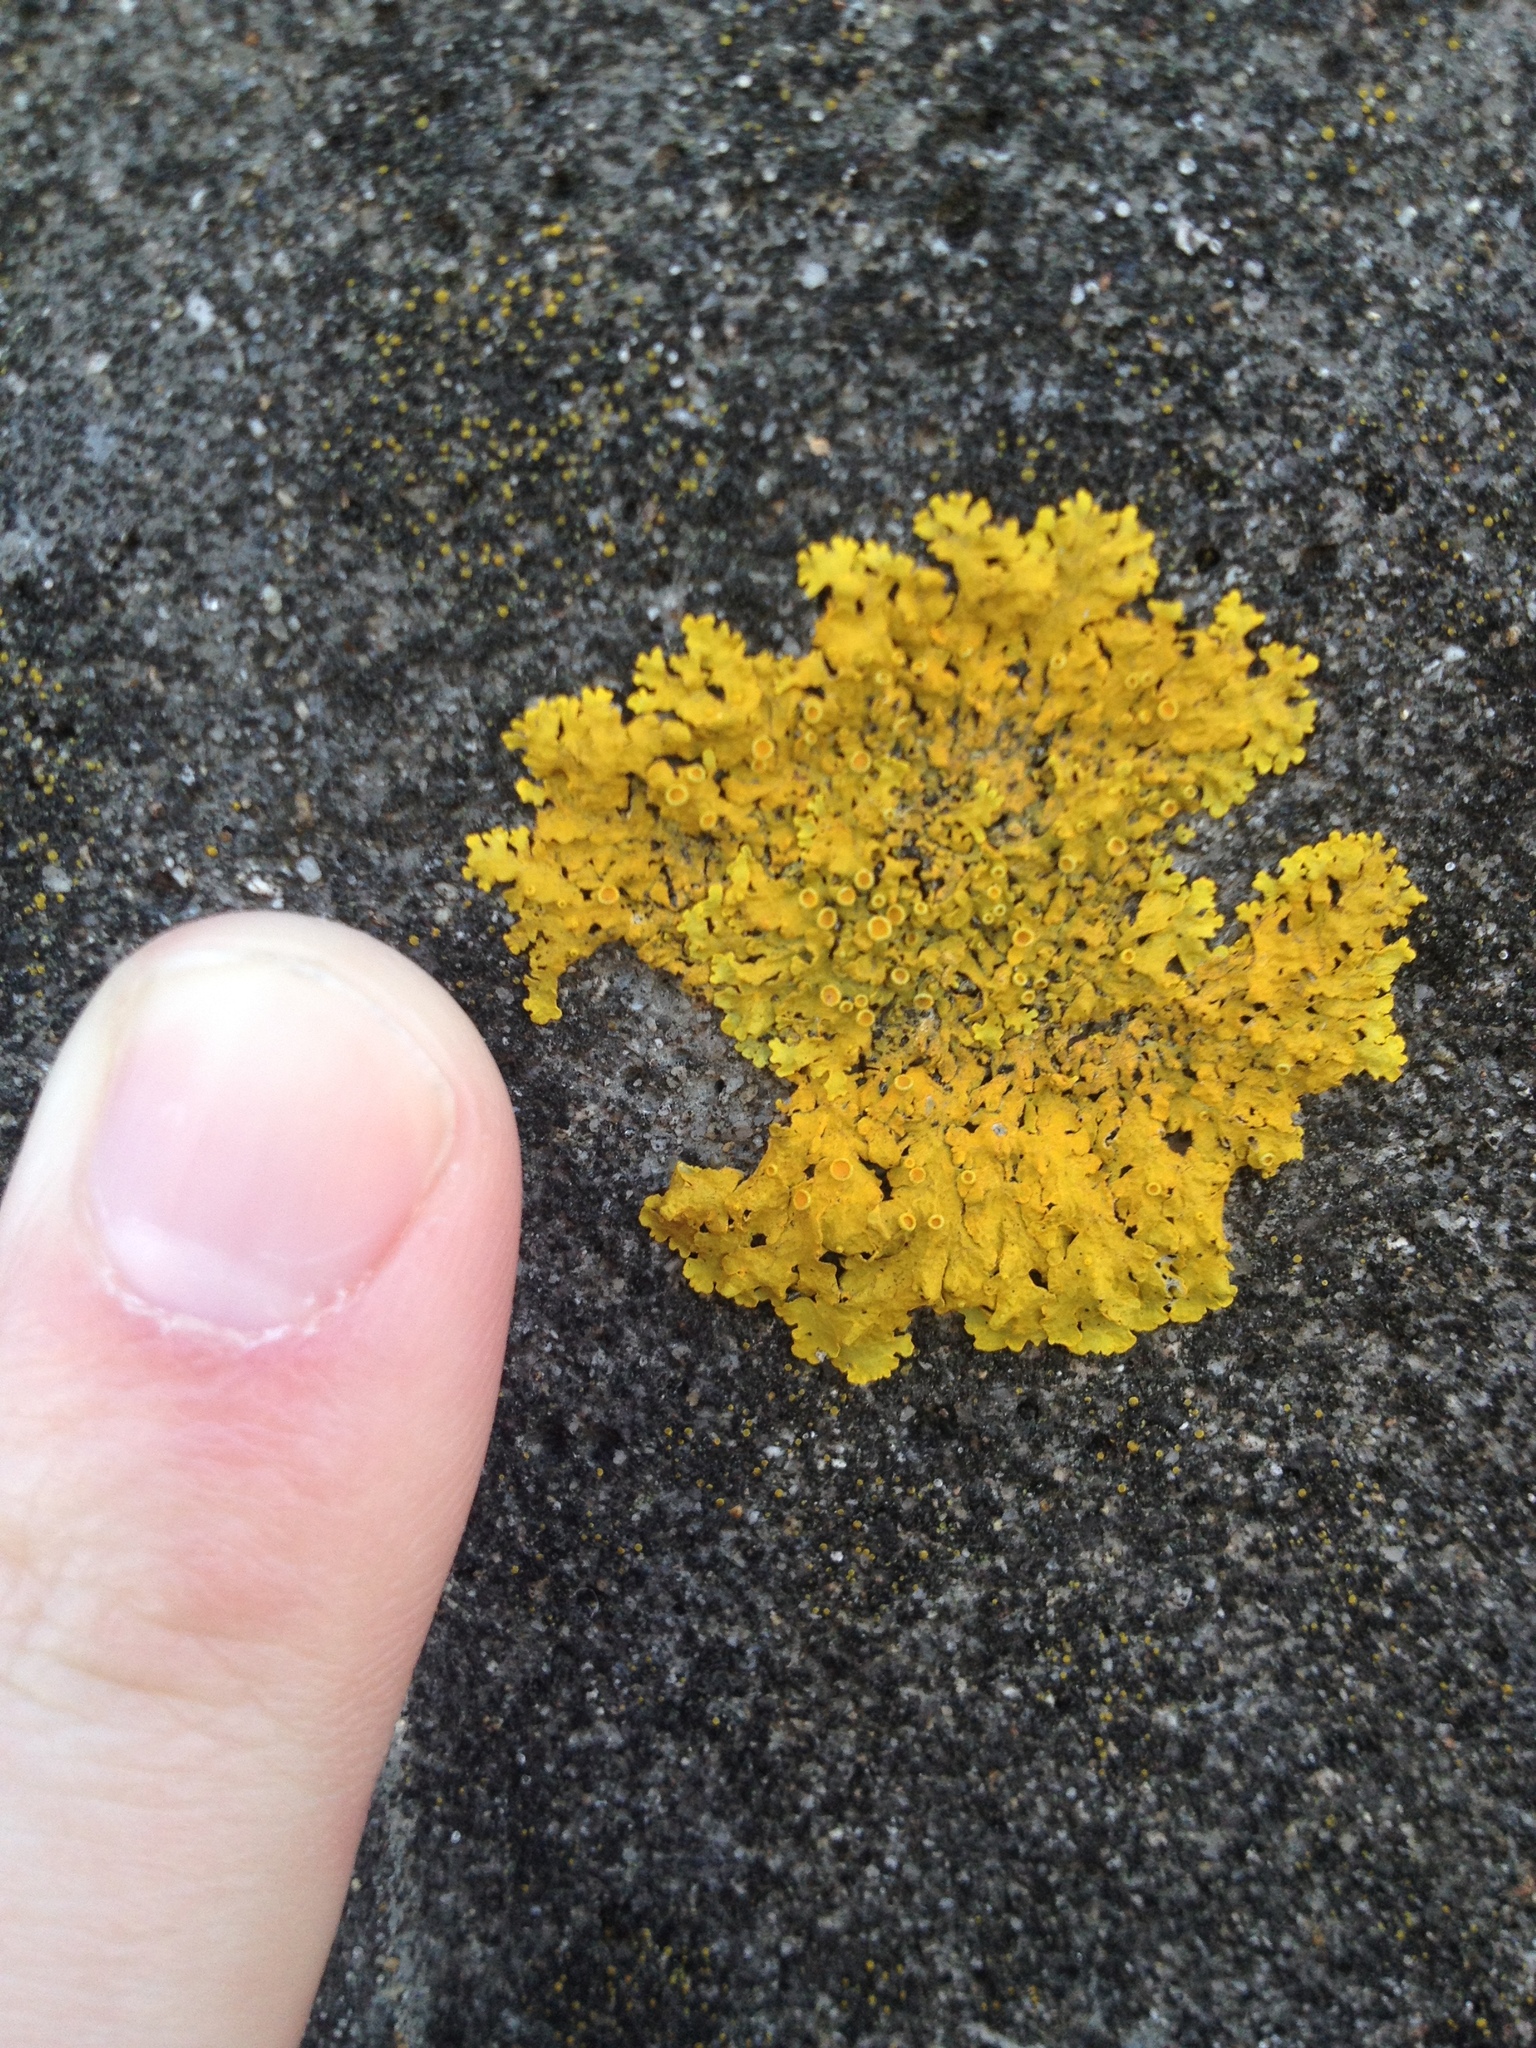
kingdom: Fungi
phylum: Ascomycota
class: Lecanoromycetes
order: Teloschistales
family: Teloschistaceae
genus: Xanthoria
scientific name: Xanthoria parietina
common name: Common orange lichen
